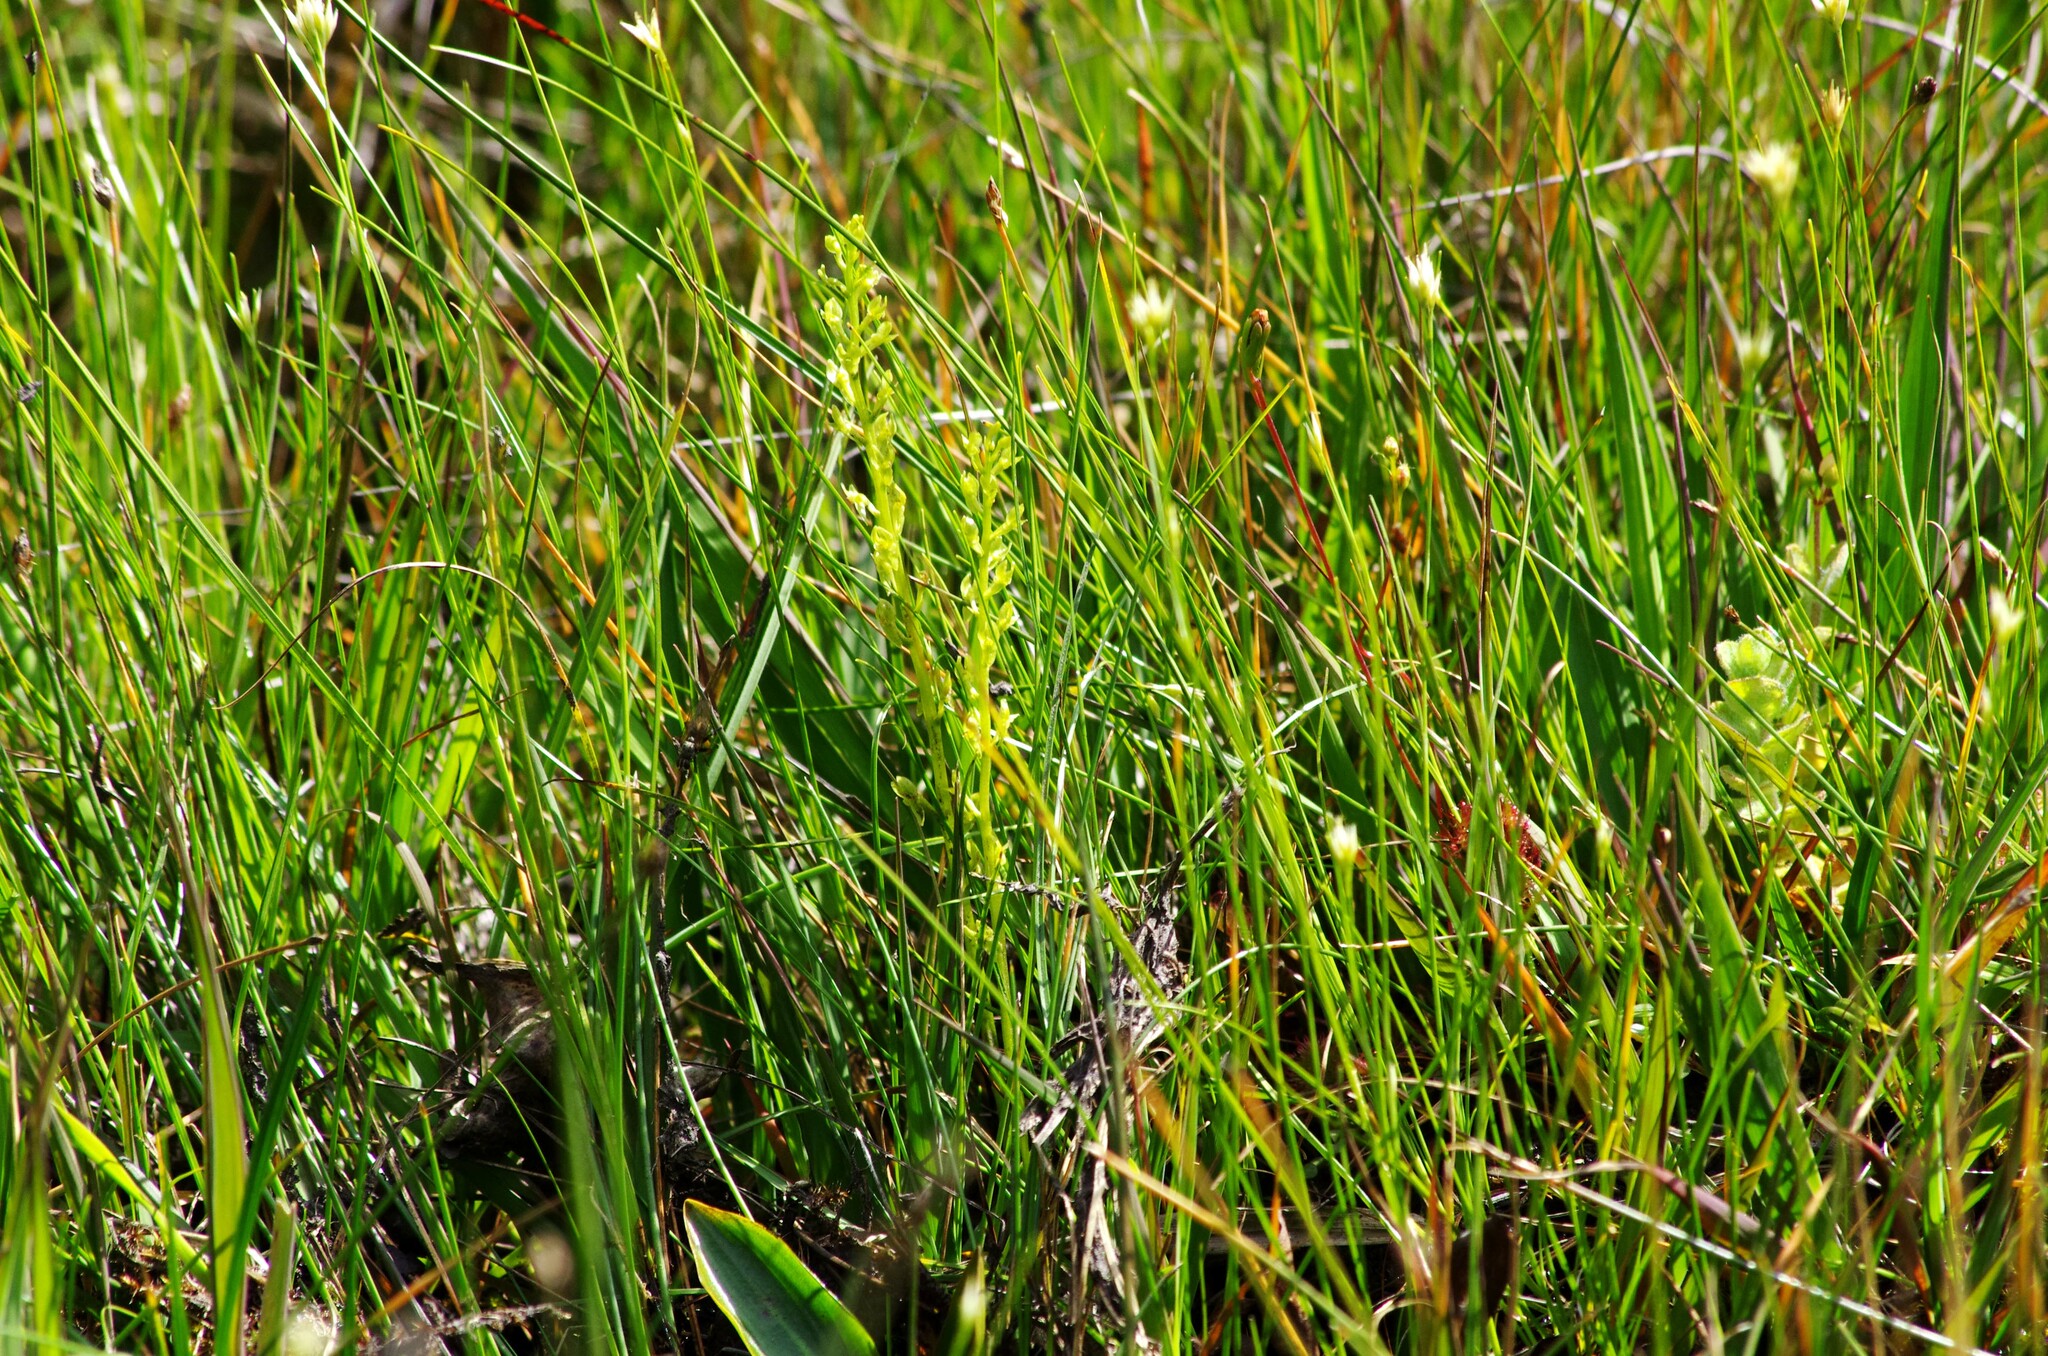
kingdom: Plantae
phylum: Tracheophyta
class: Liliopsida
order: Asparagales
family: Orchidaceae
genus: Hammarbya
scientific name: Hammarbya paludosa
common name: Bog orchid
